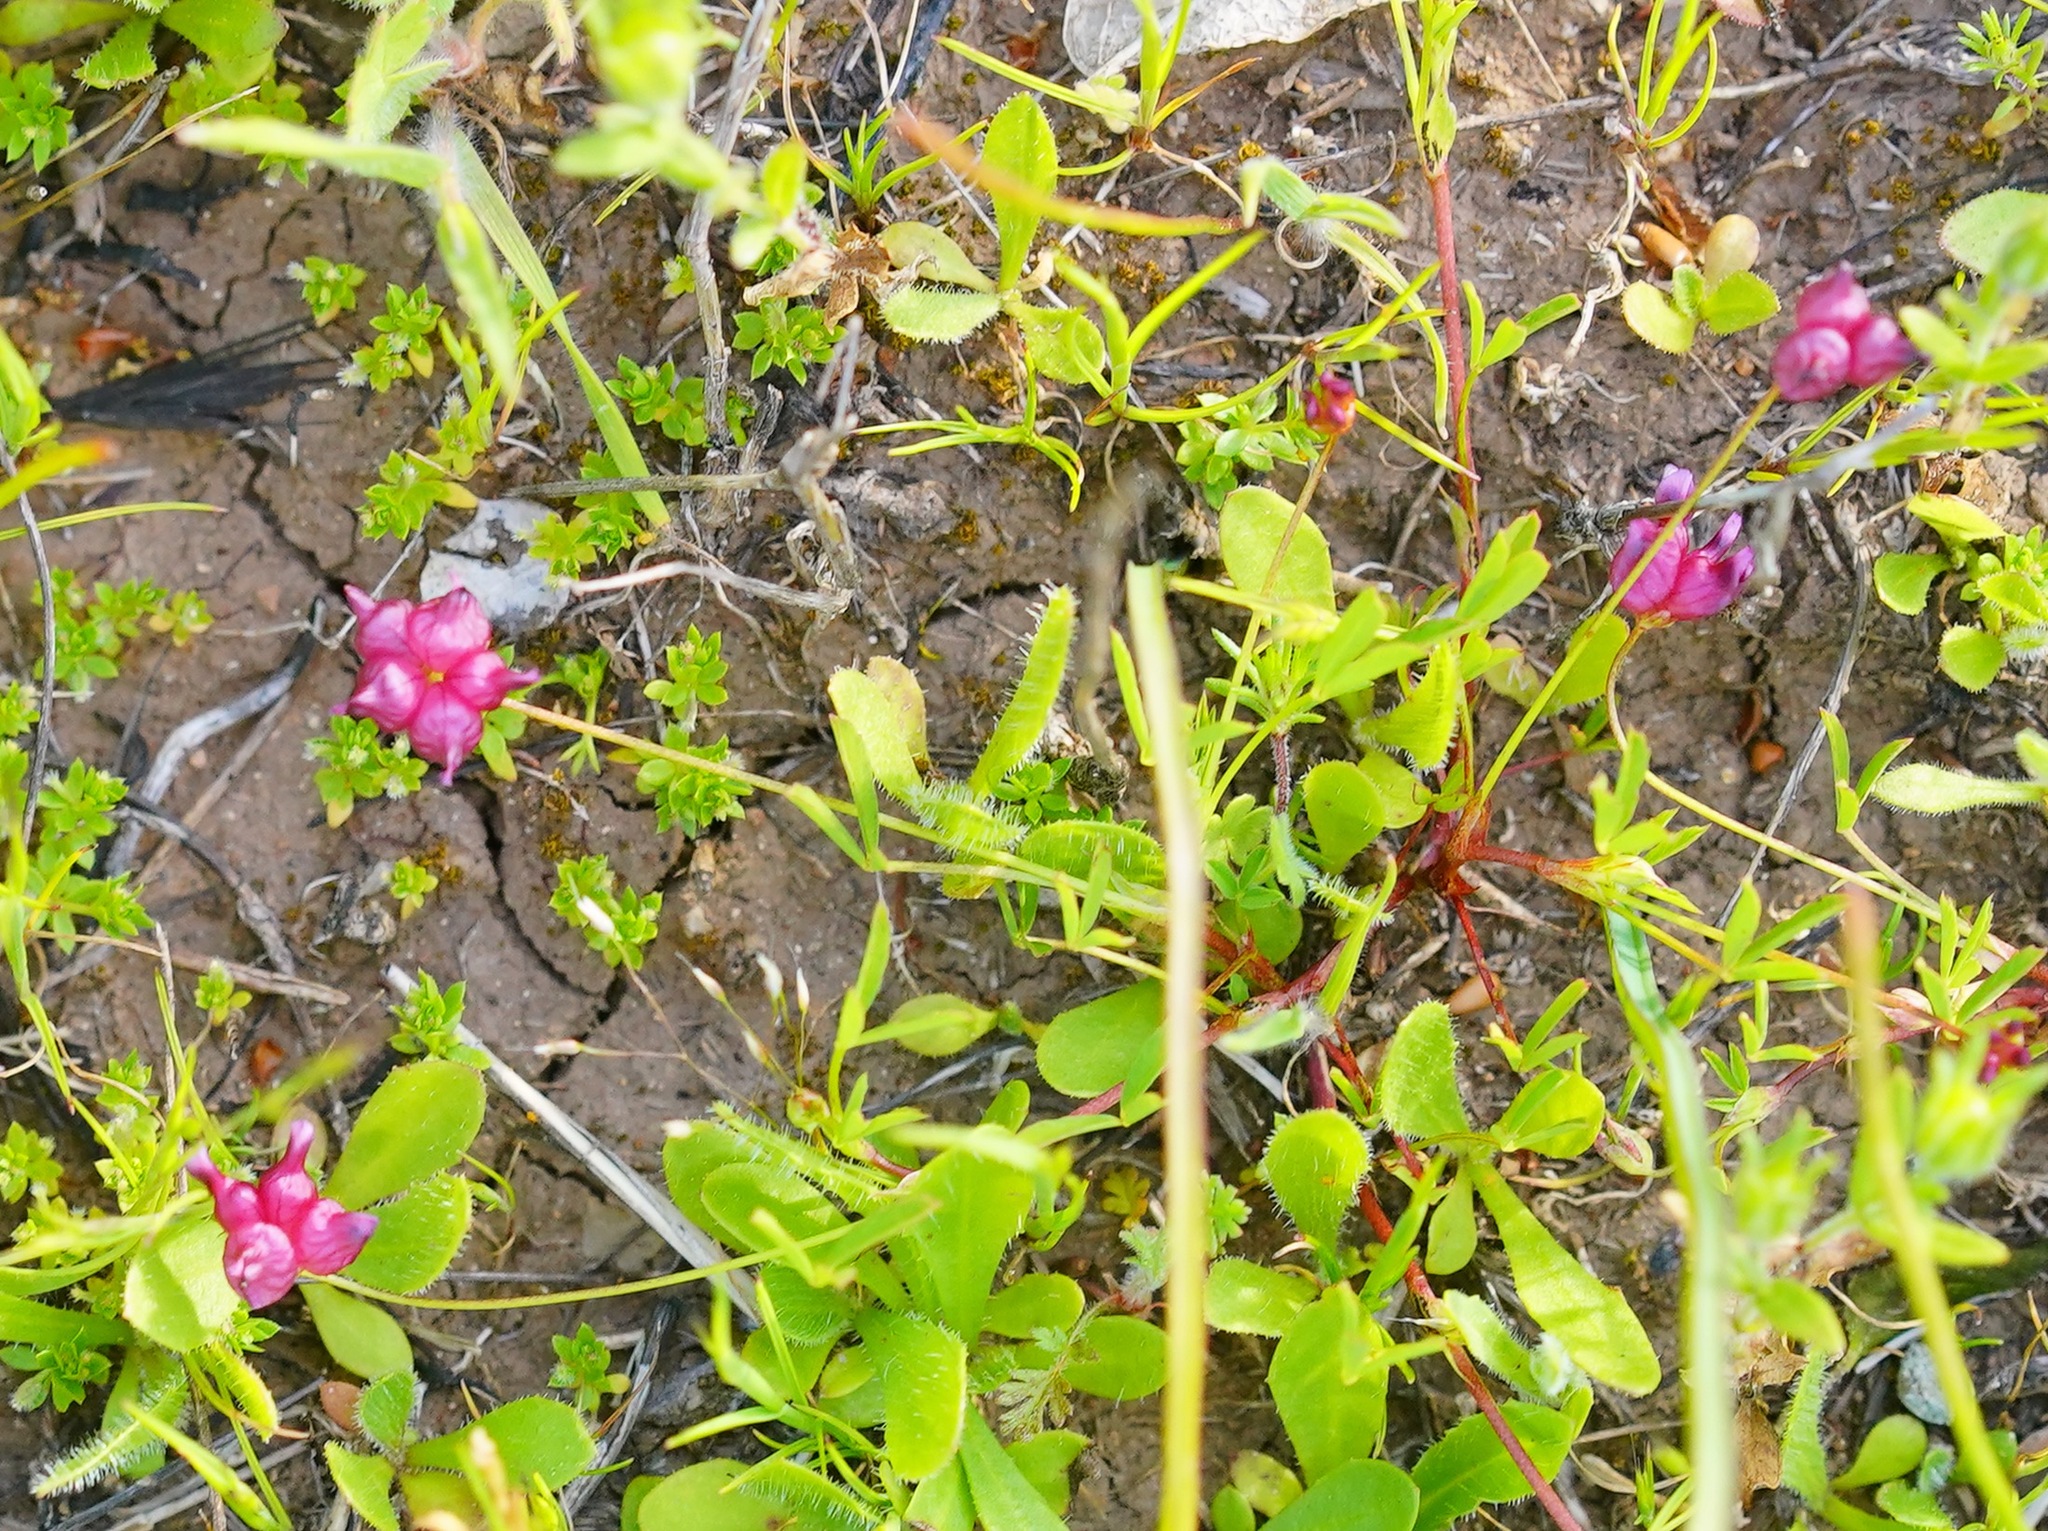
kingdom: Plantae
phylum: Tracheophyta
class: Magnoliopsida
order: Fabales
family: Fabaceae
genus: Trifolium
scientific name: Trifolium depauperatum
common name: Poverty clover
